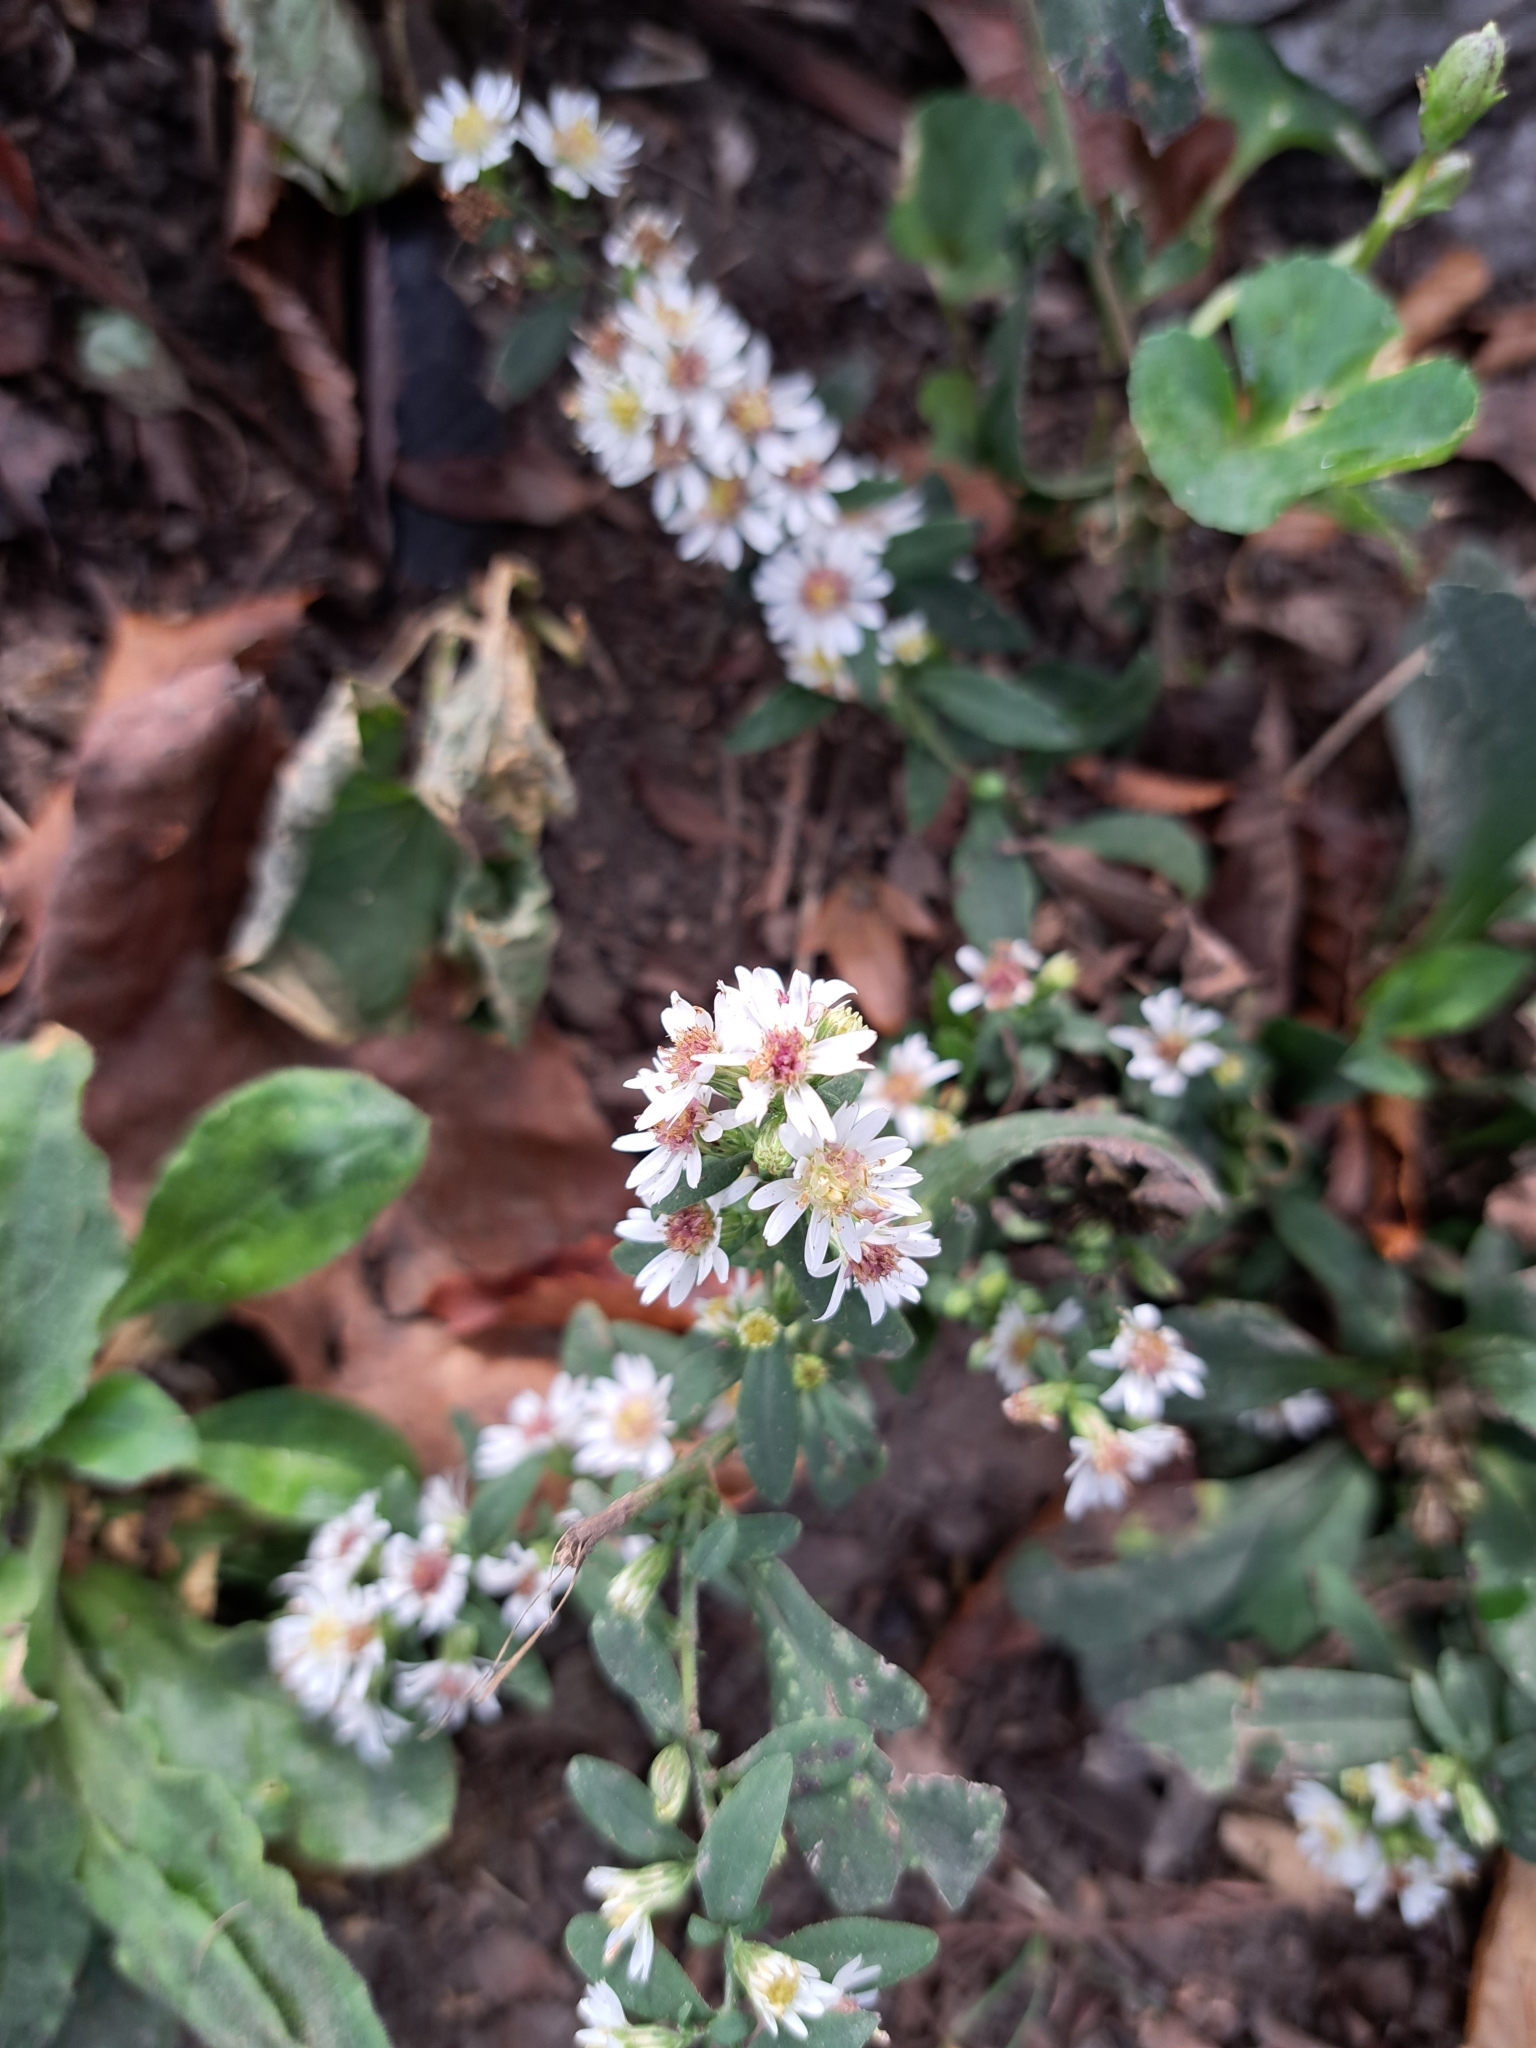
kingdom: Plantae
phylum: Tracheophyta
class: Magnoliopsida
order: Asterales
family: Asteraceae
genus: Symphyotrichum
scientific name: Symphyotrichum lateriflorum
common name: Calico aster
